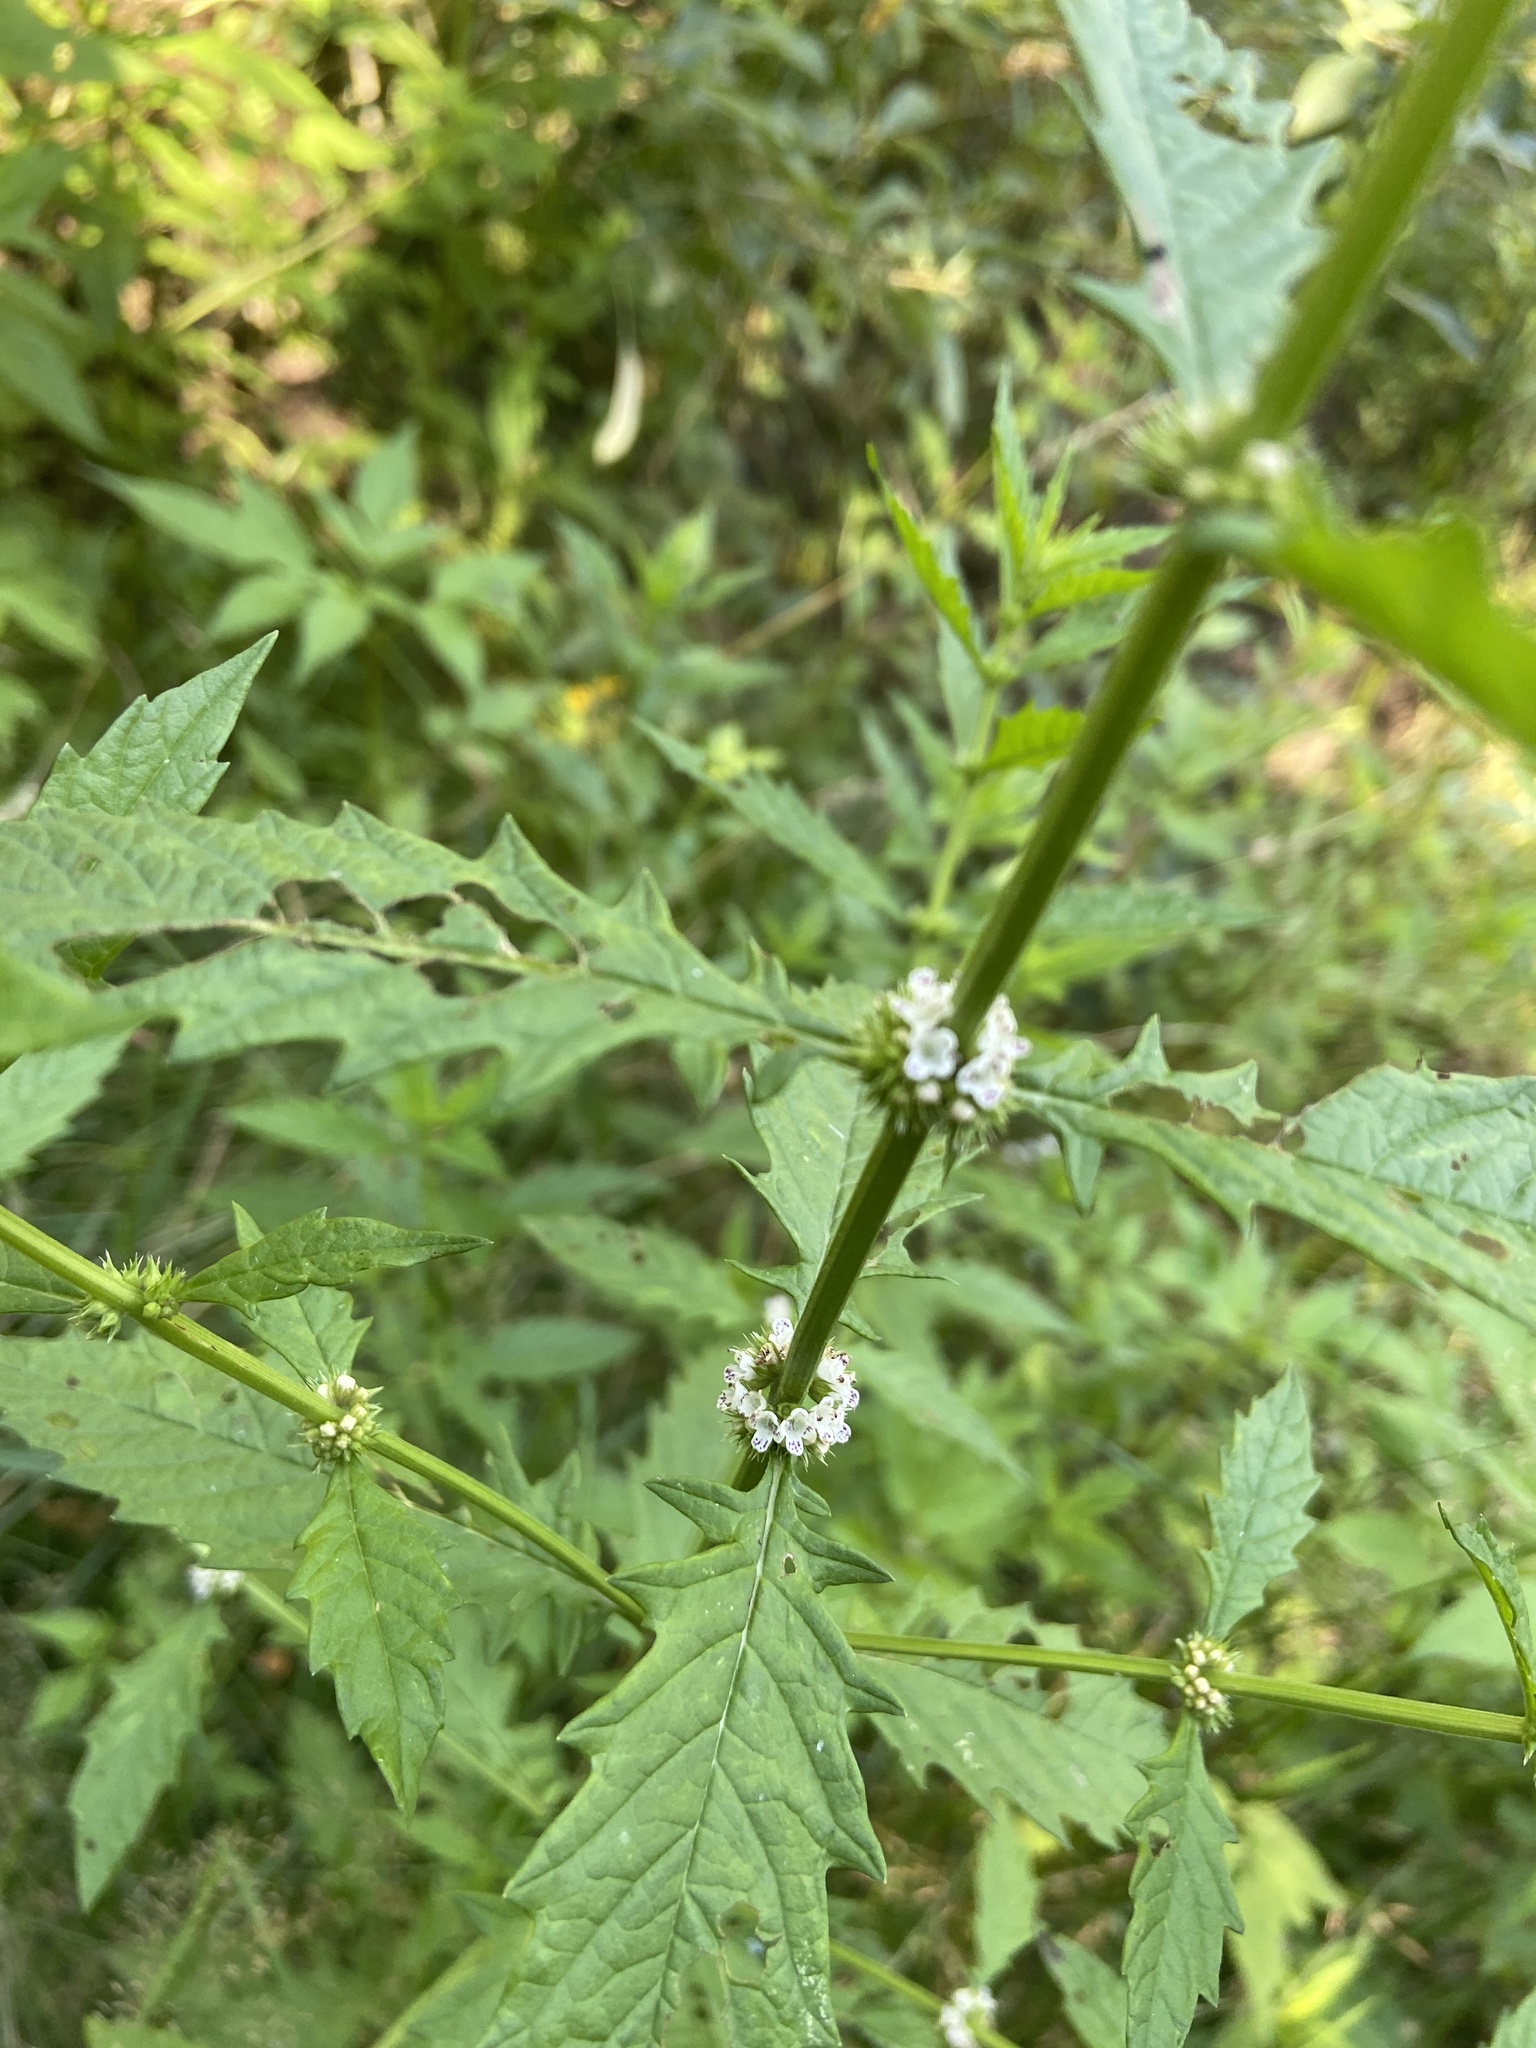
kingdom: Plantae
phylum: Tracheophyta
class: Magnoliopsida
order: Lamiales
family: Lamiaceae
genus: Lycopus
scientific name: Lycopus europaeus
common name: European bugleweed
